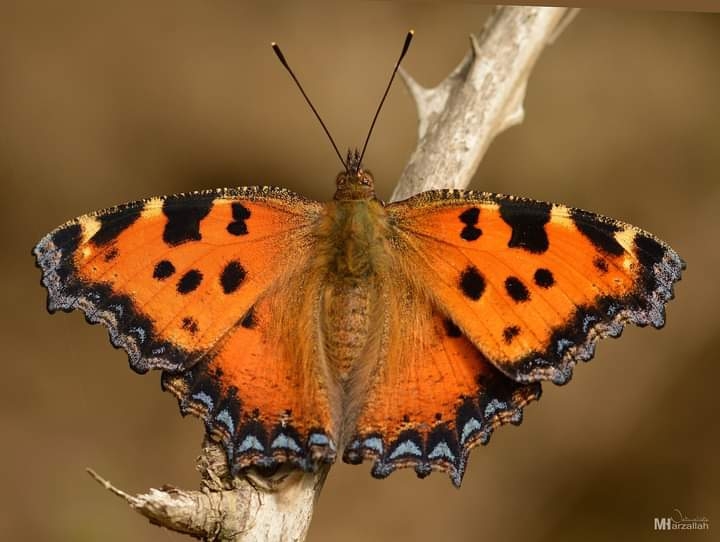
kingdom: Animalia
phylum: Arthropoda
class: Insecta
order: Lepidoptera
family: Nymphalidae
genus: Nymphalis
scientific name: Nymphalis polychloros
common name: Large tortoiseshell
